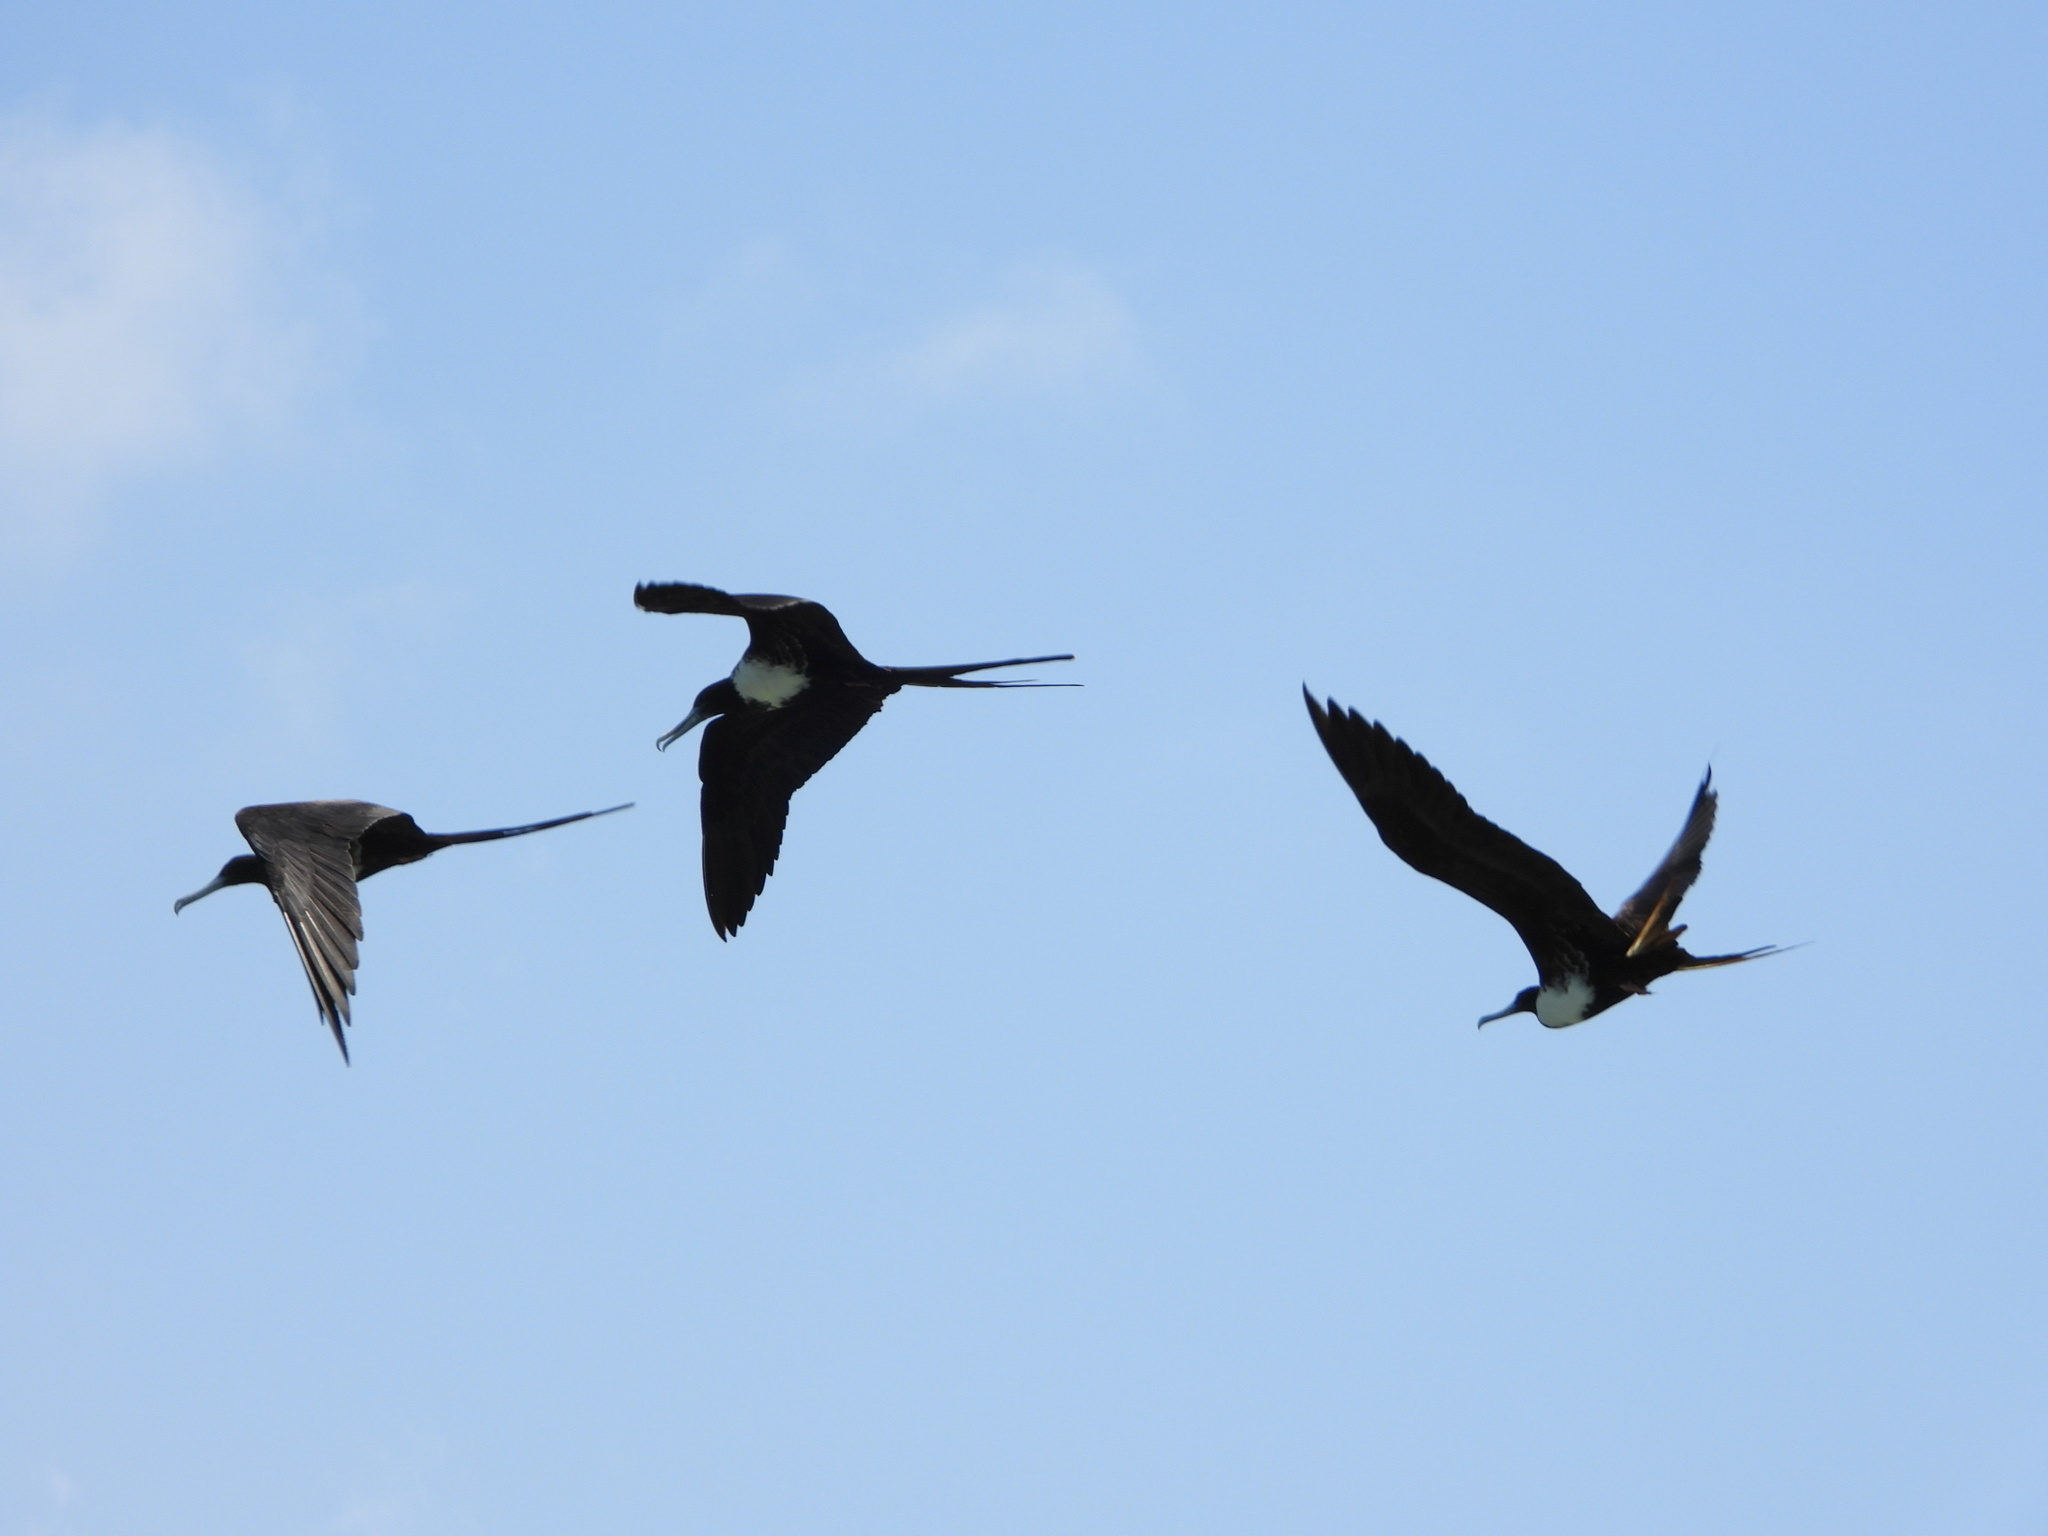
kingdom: Animalia
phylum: Chordata
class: Aves
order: Suliformes
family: Fregatidae
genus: Fregata
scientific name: Fregata magnificens
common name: Magnificent frigatebird
